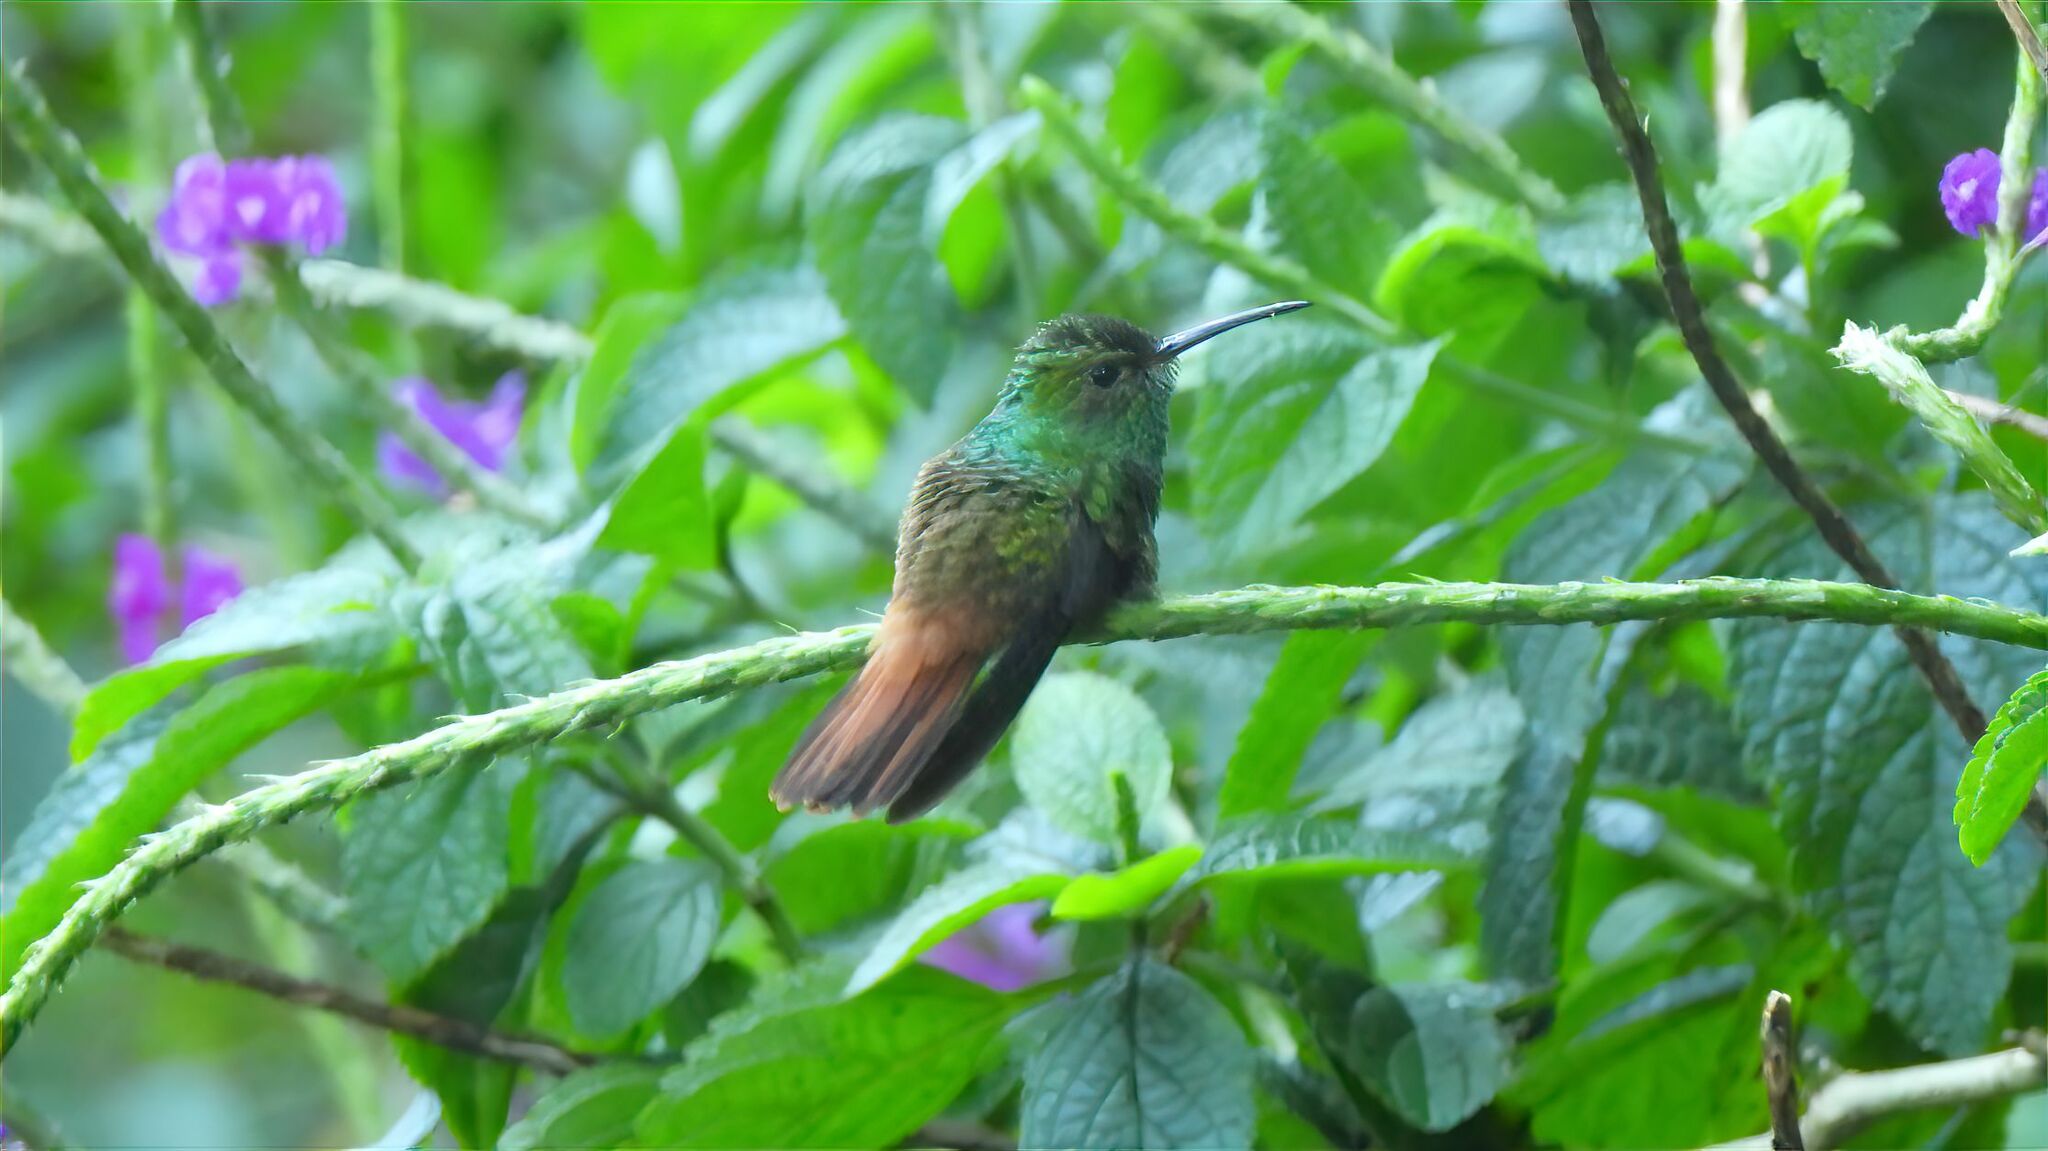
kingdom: Animalia
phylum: Chordata
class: Aves
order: Apodiformes
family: Trochilidae
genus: Amazilia
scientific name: Amazilia tzacatl
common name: Rufous-tailed hummingbird
